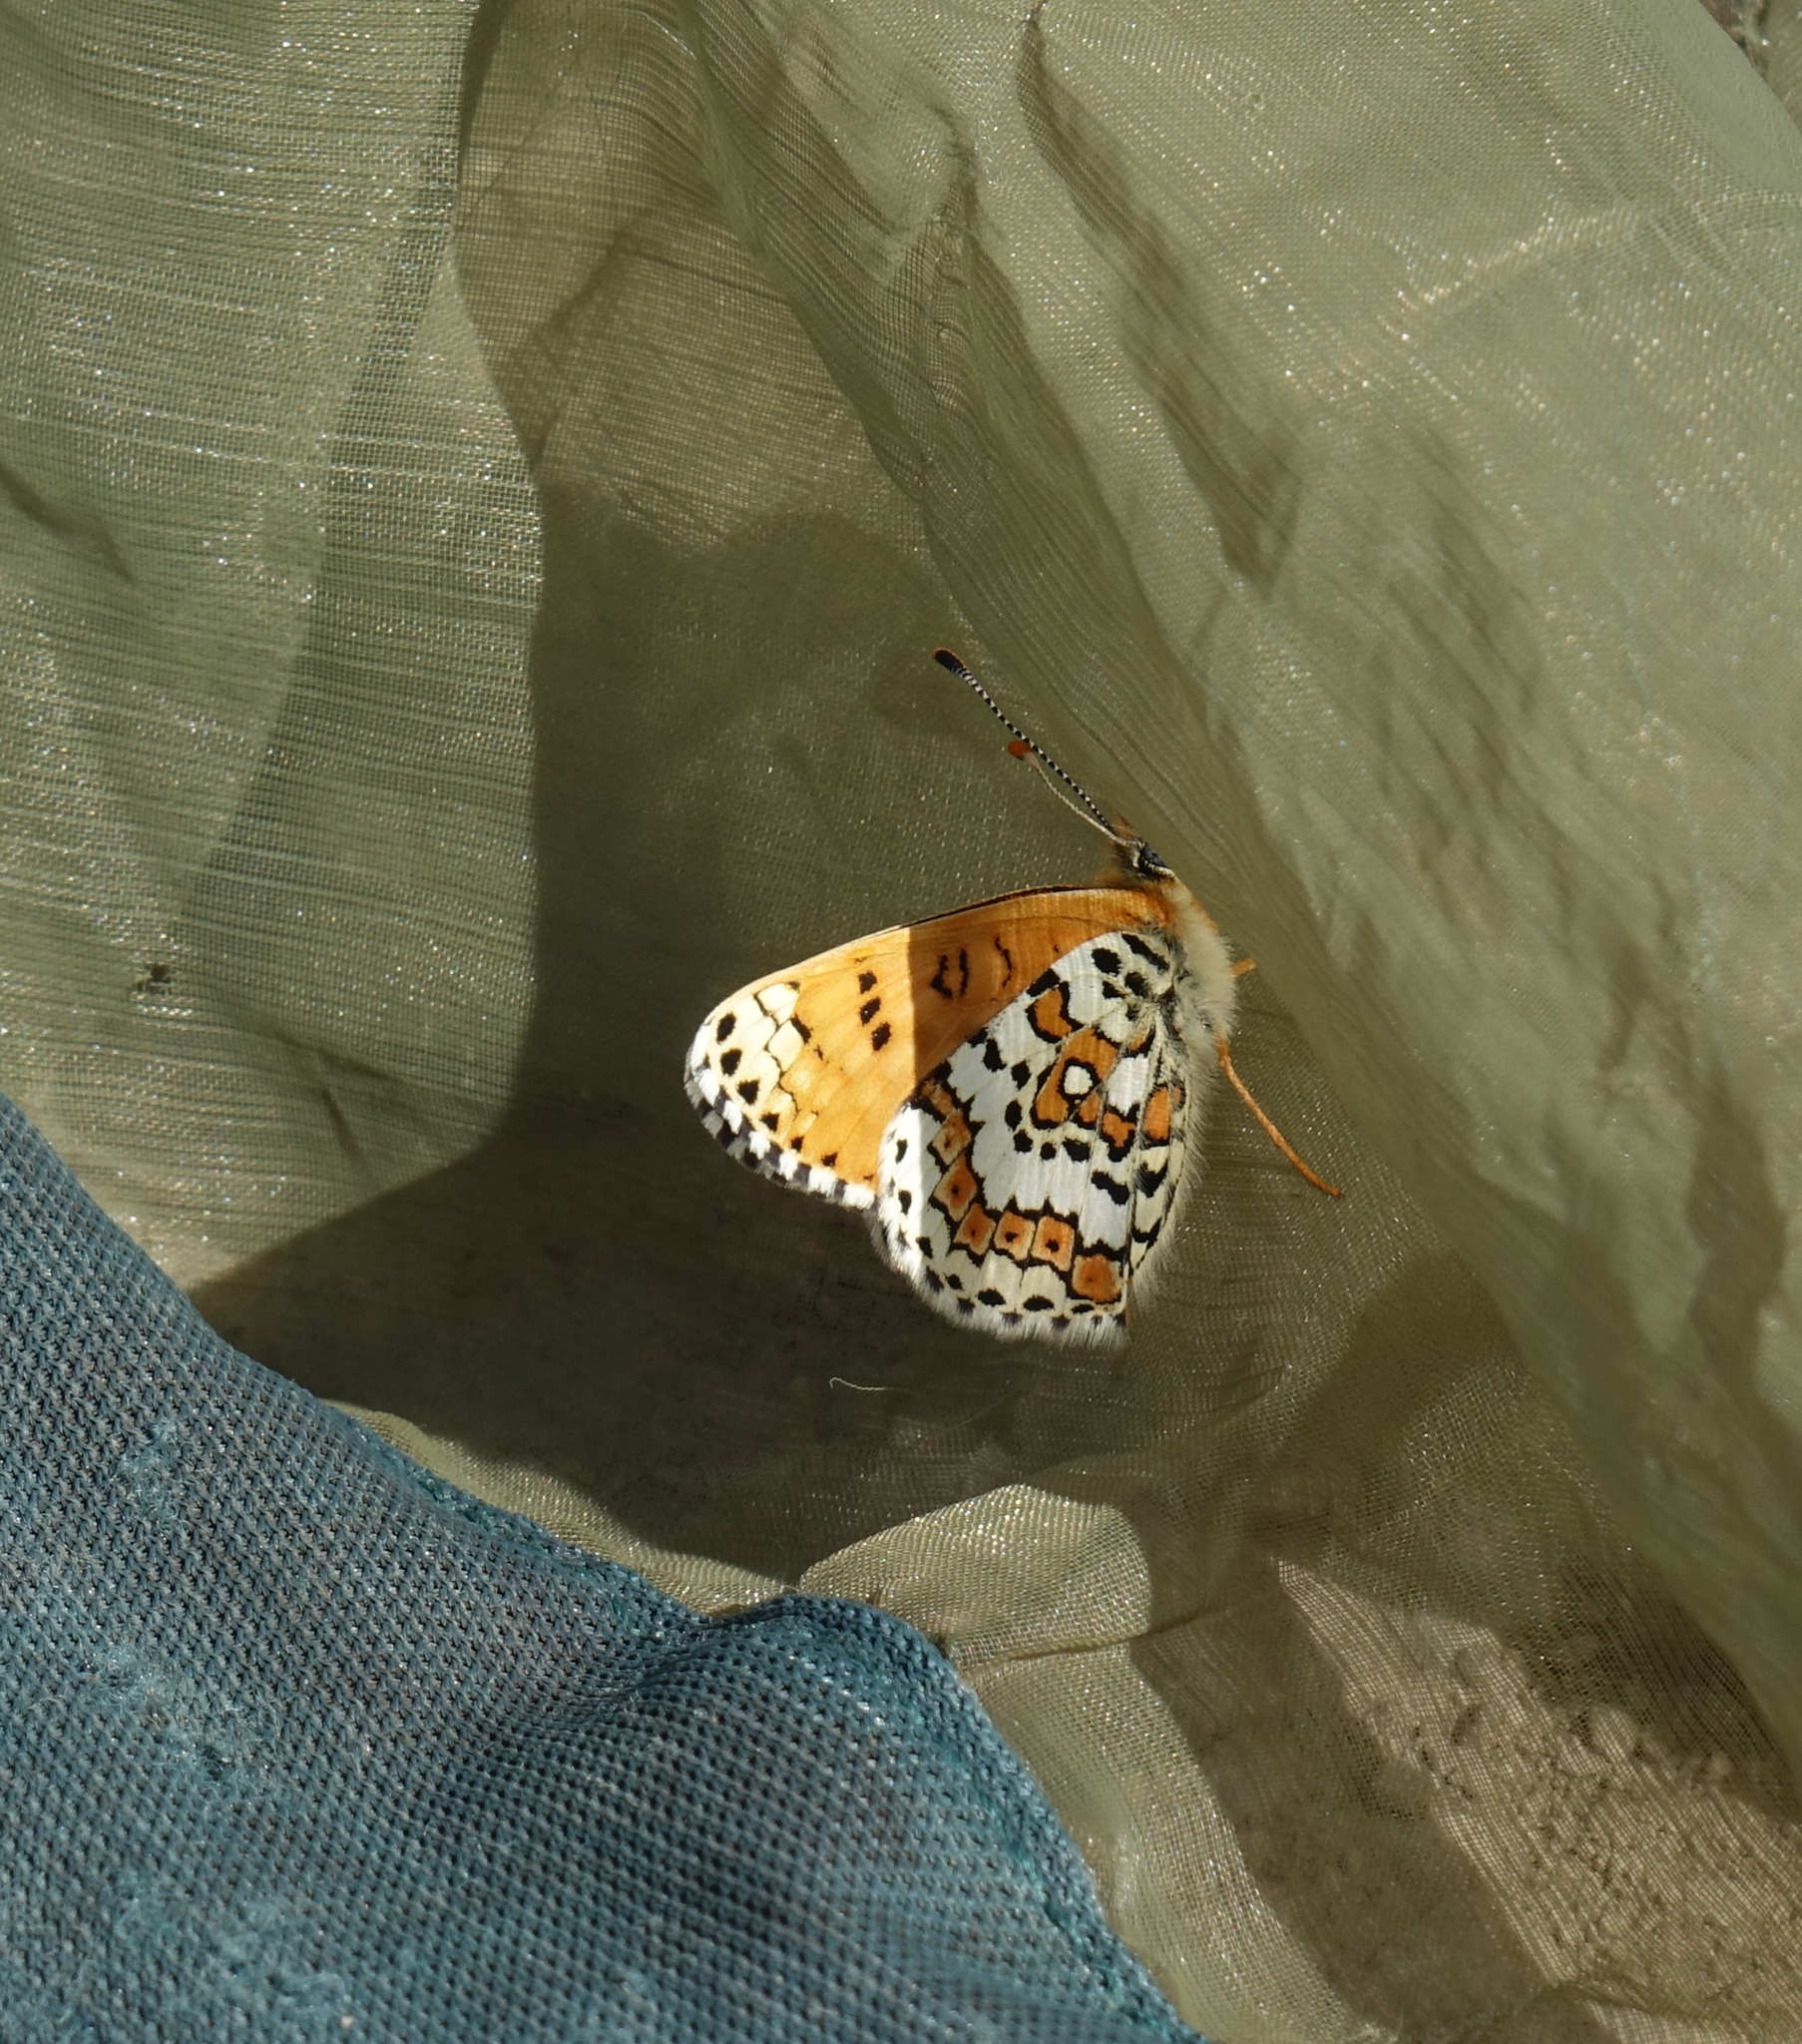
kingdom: Animalia
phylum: Arthropoda
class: Insecta
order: Lepidoptera
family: Nymphalidae
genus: Melitaea
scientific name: Melitaea cinxia
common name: Glanville fritillary
